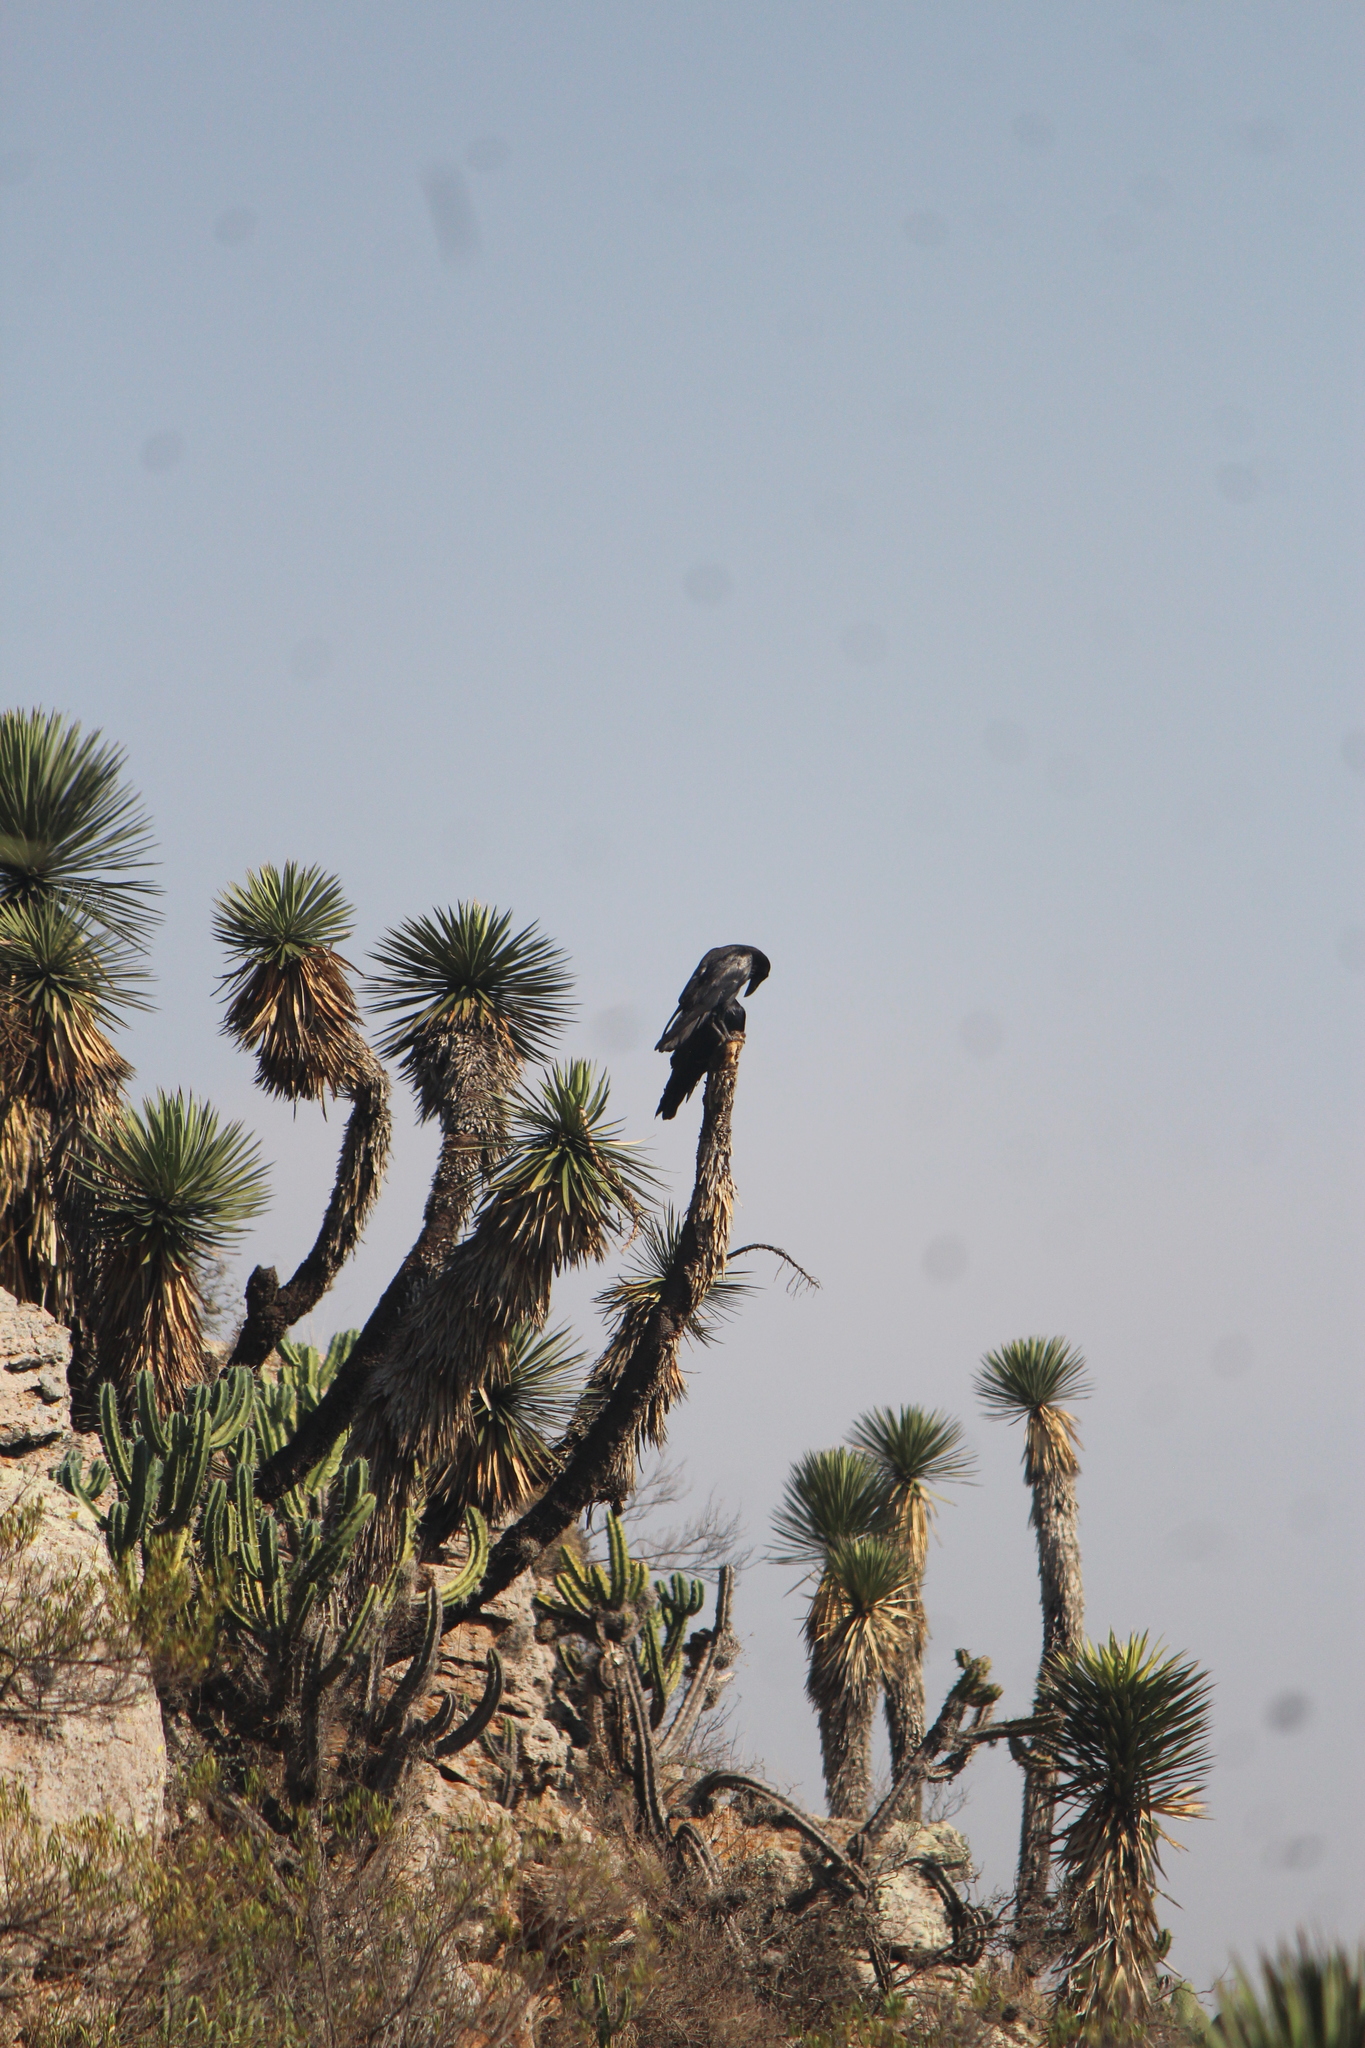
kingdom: Animalia
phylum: Chordata
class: Aves
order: Passeriformes
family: Corvidae
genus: Corvus
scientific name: Corvus corax
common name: Common raven
